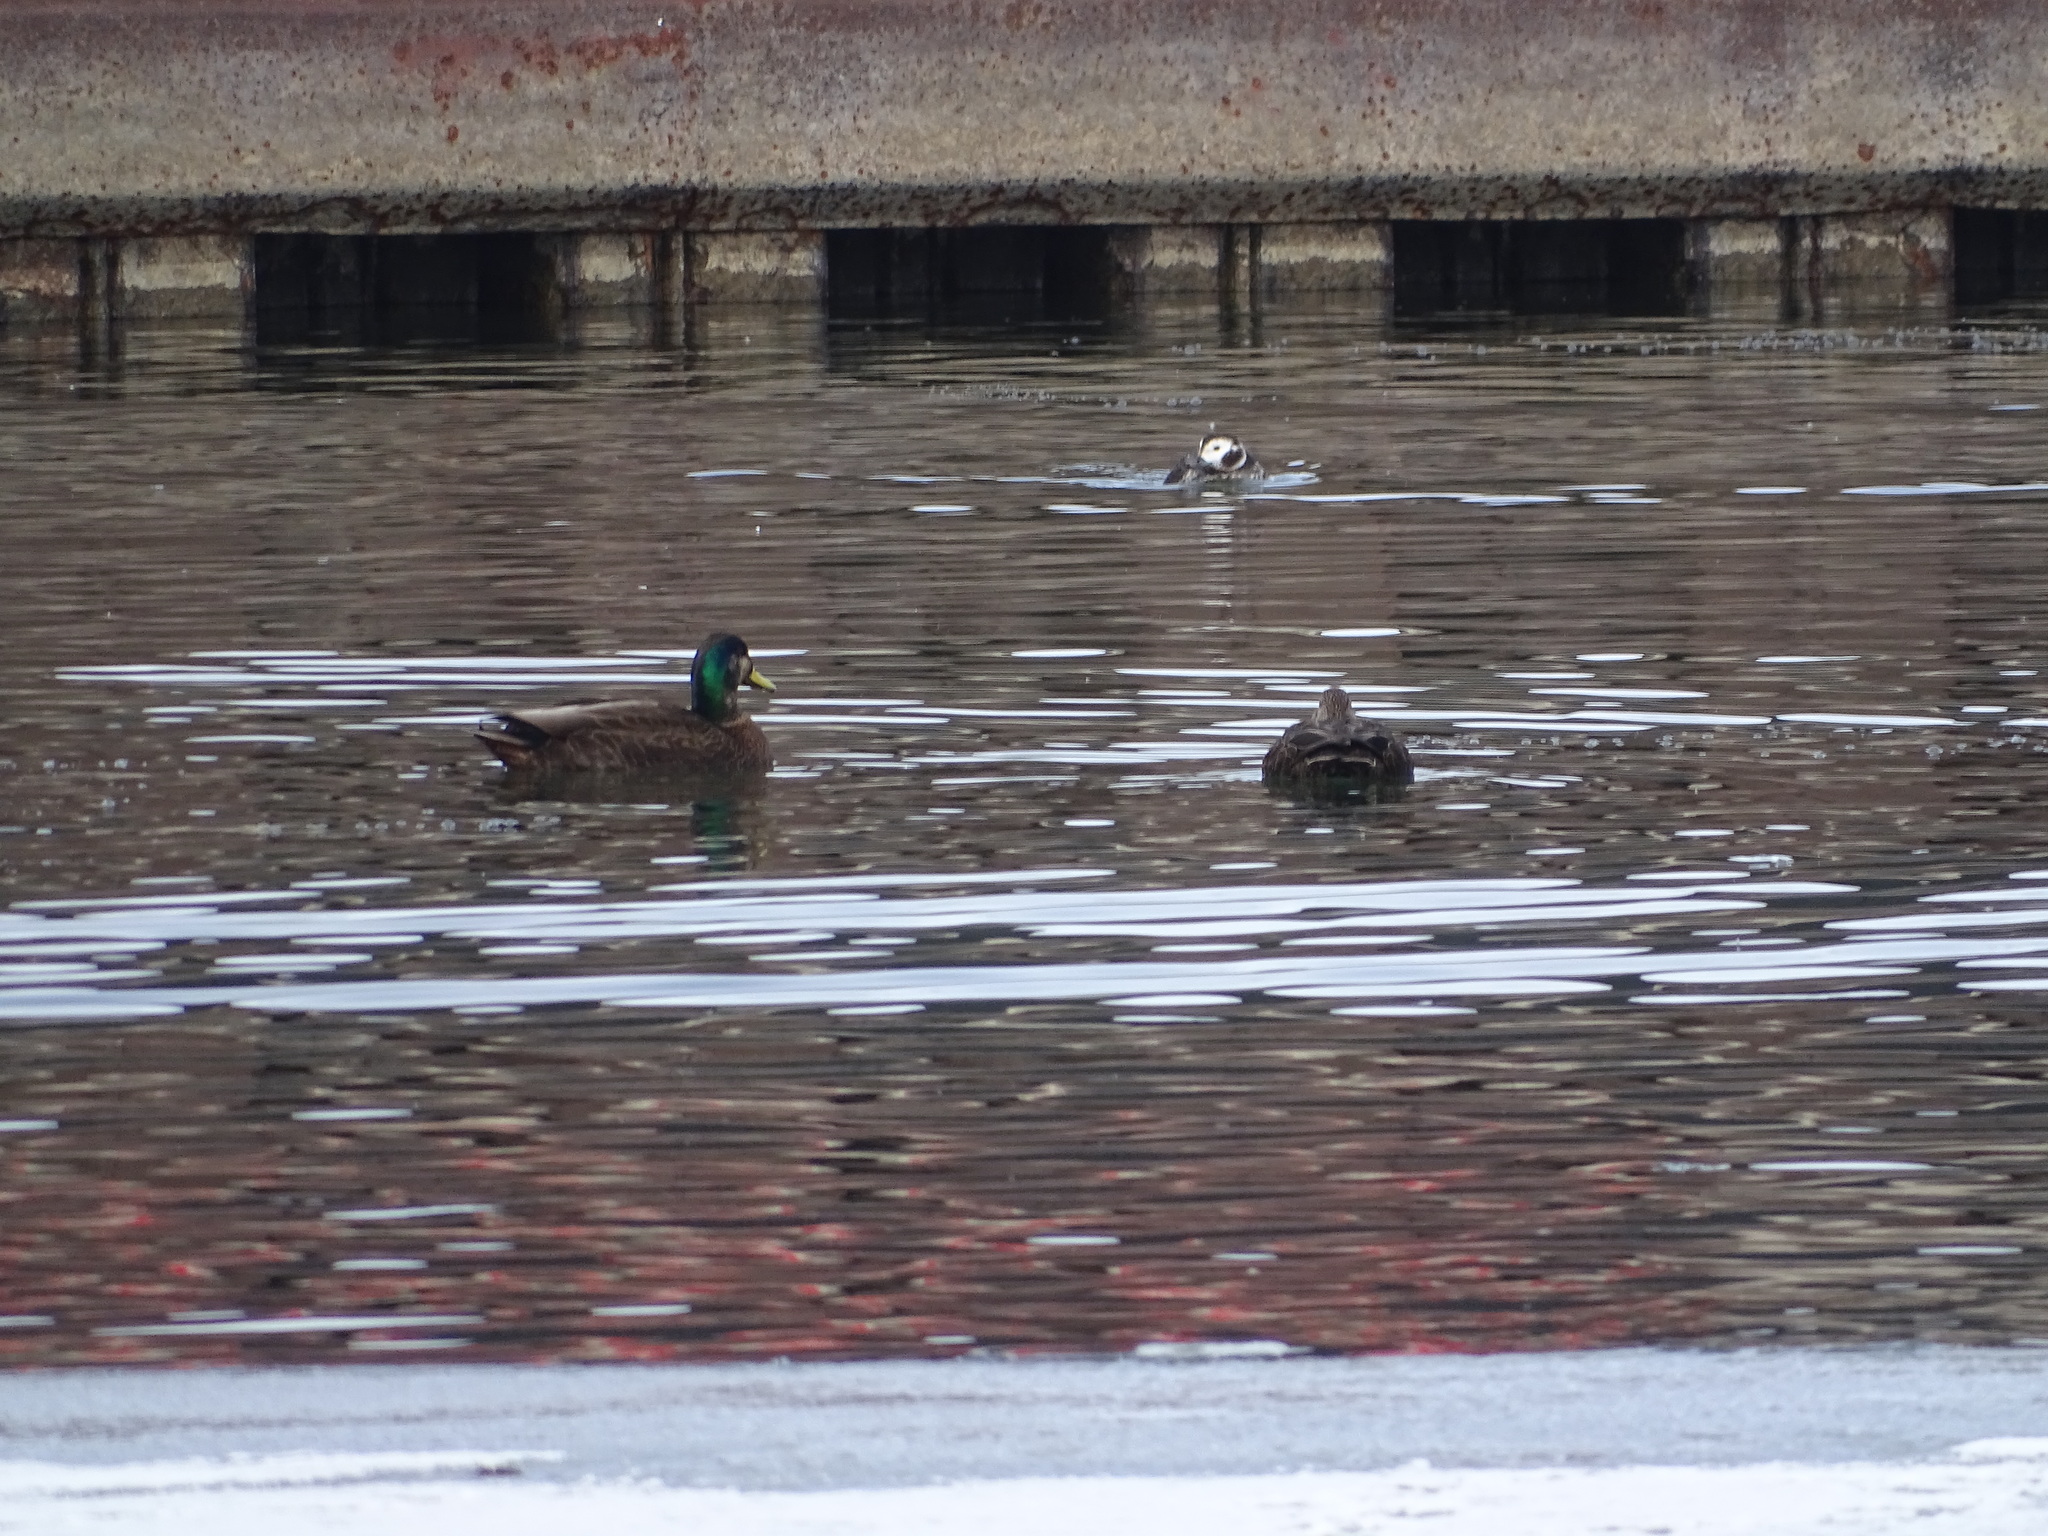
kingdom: Animalia
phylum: Chordata
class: Aves
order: Anseriformes
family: Anatidae
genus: Anas
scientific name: Anas
